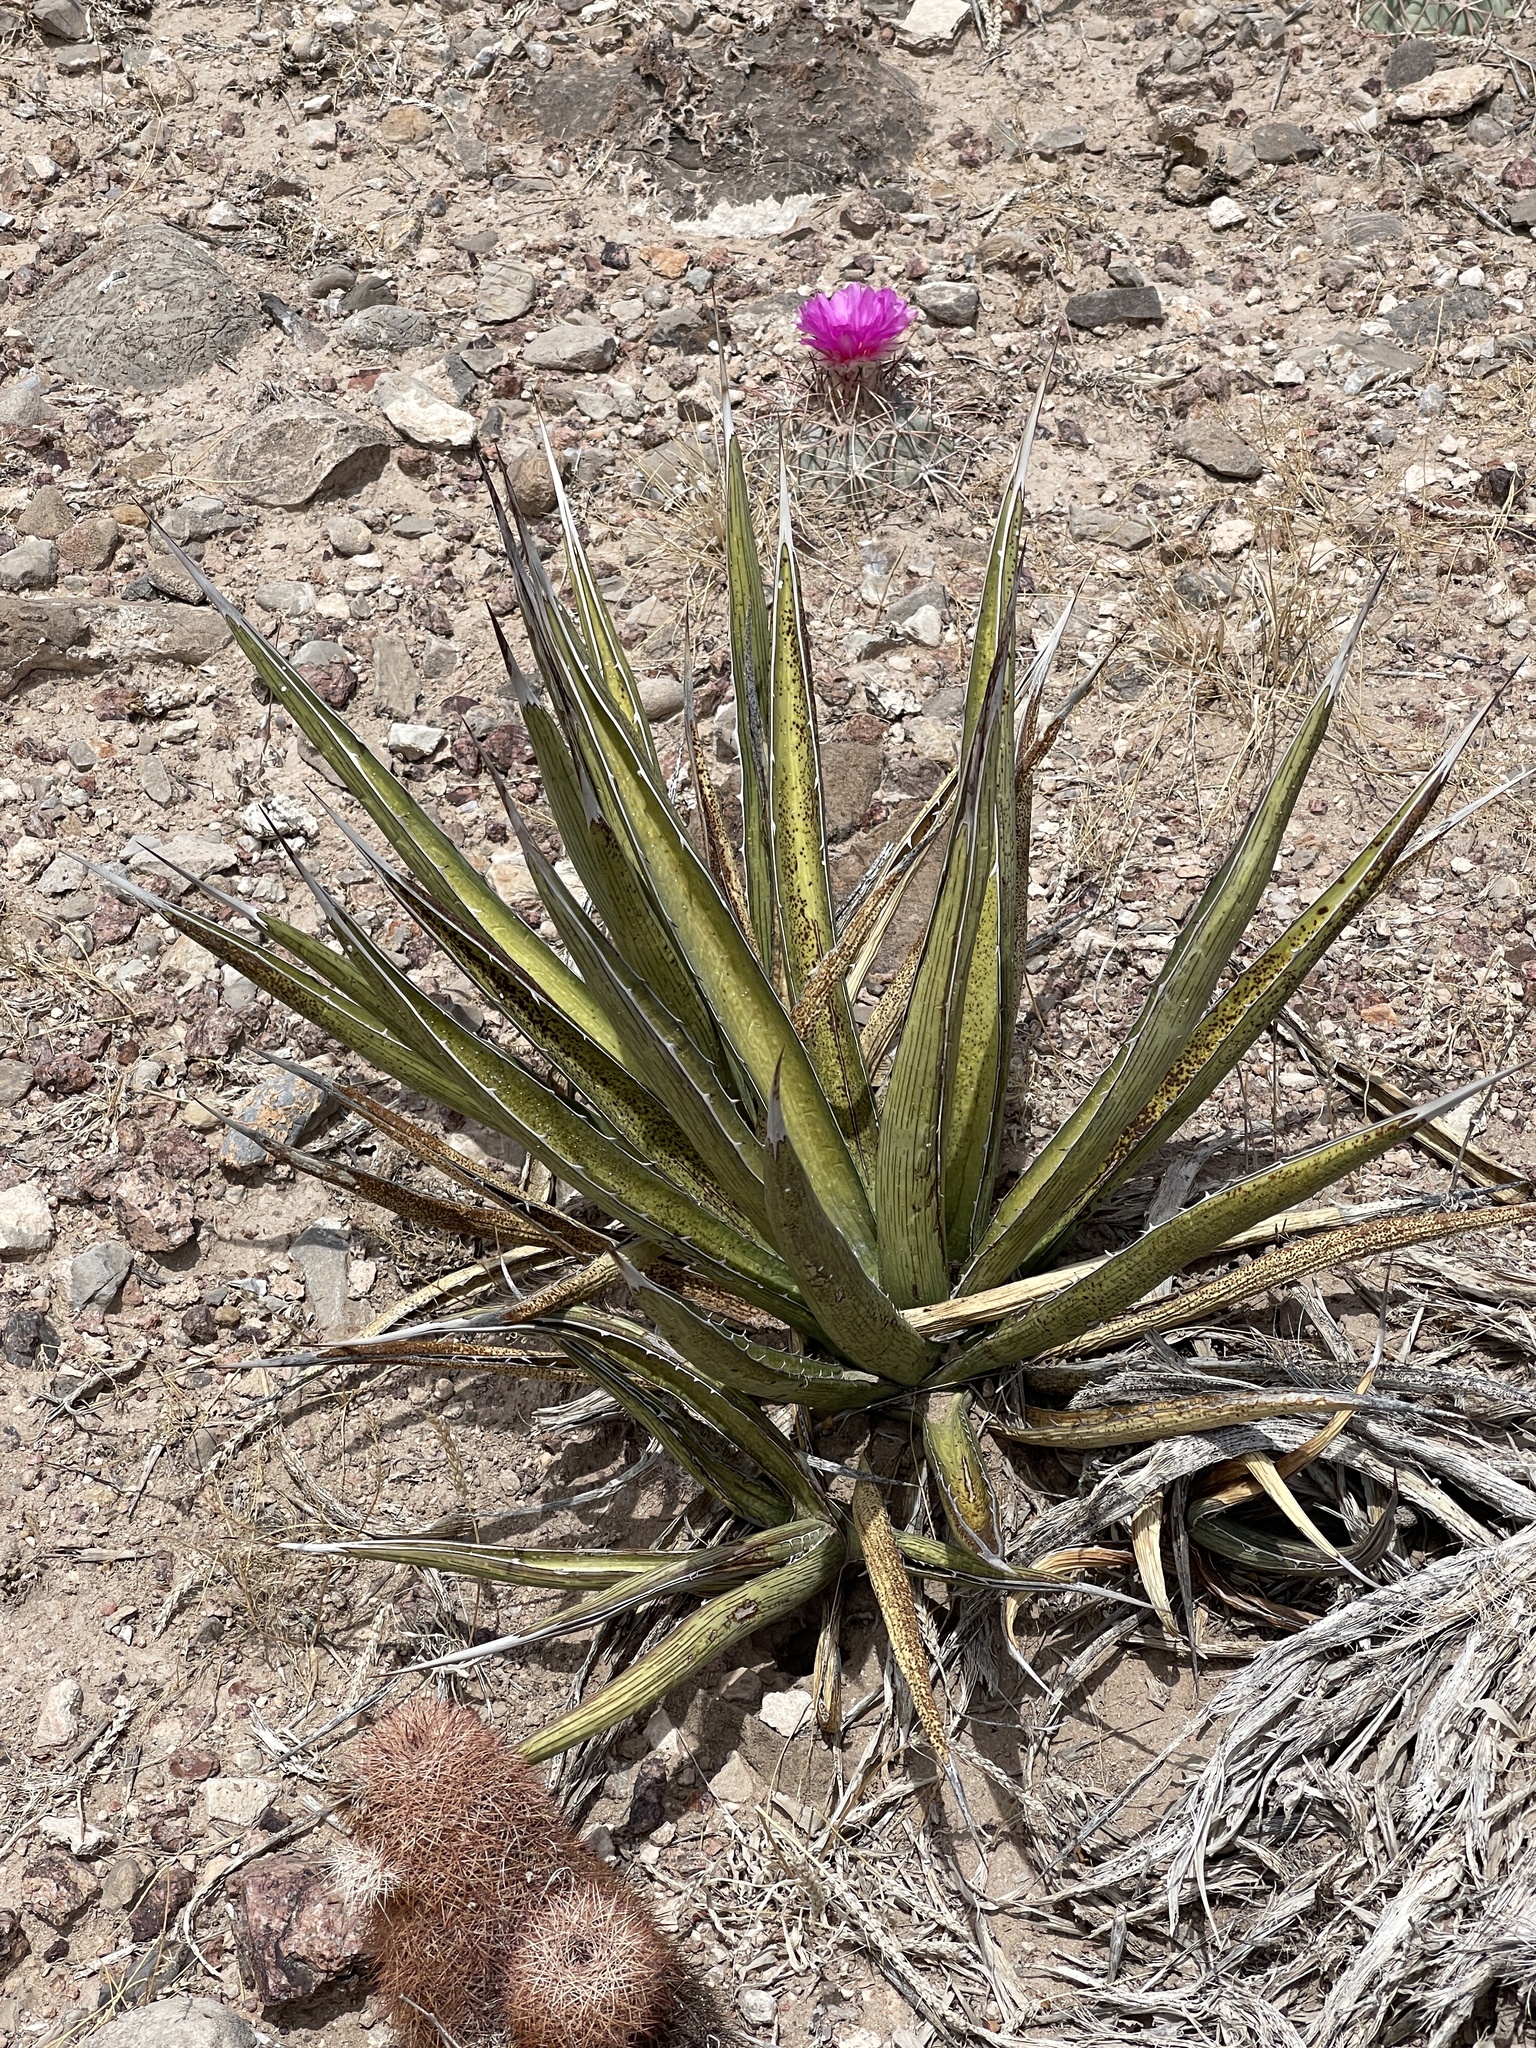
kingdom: Plantae
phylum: Tracheophyta
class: Liliopsida
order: Asparagales
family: Asparagaceae
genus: Agave
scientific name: Agave lechuguilla
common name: Lecheguilla agave
